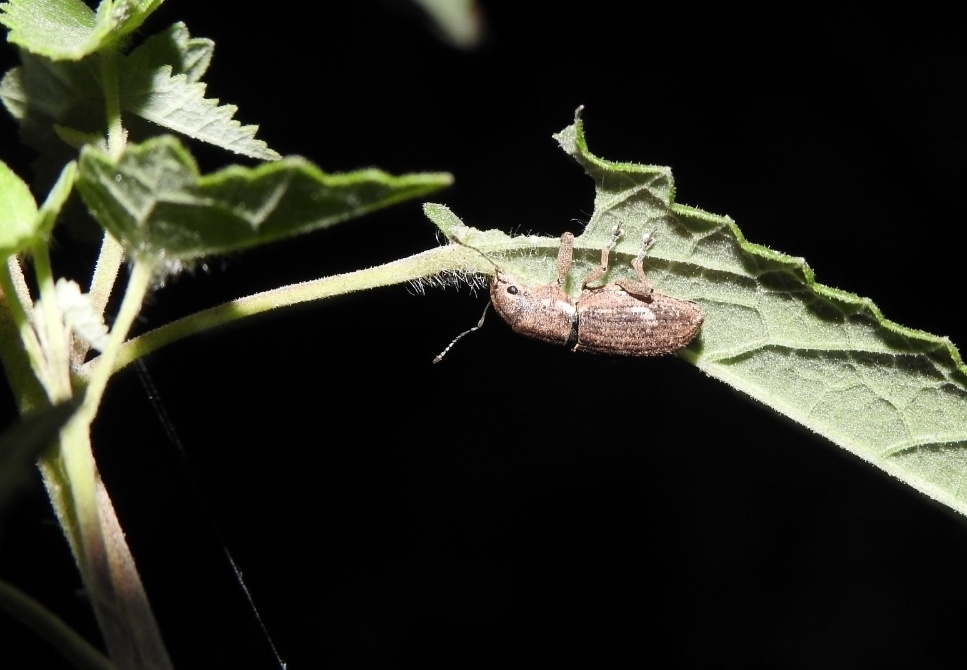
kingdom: Animalia
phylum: Arthropoda
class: Insecta
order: Coleoptera
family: Curculionidae
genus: Naupactus
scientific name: Naupactus cervinus
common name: Fuller rose beetle
